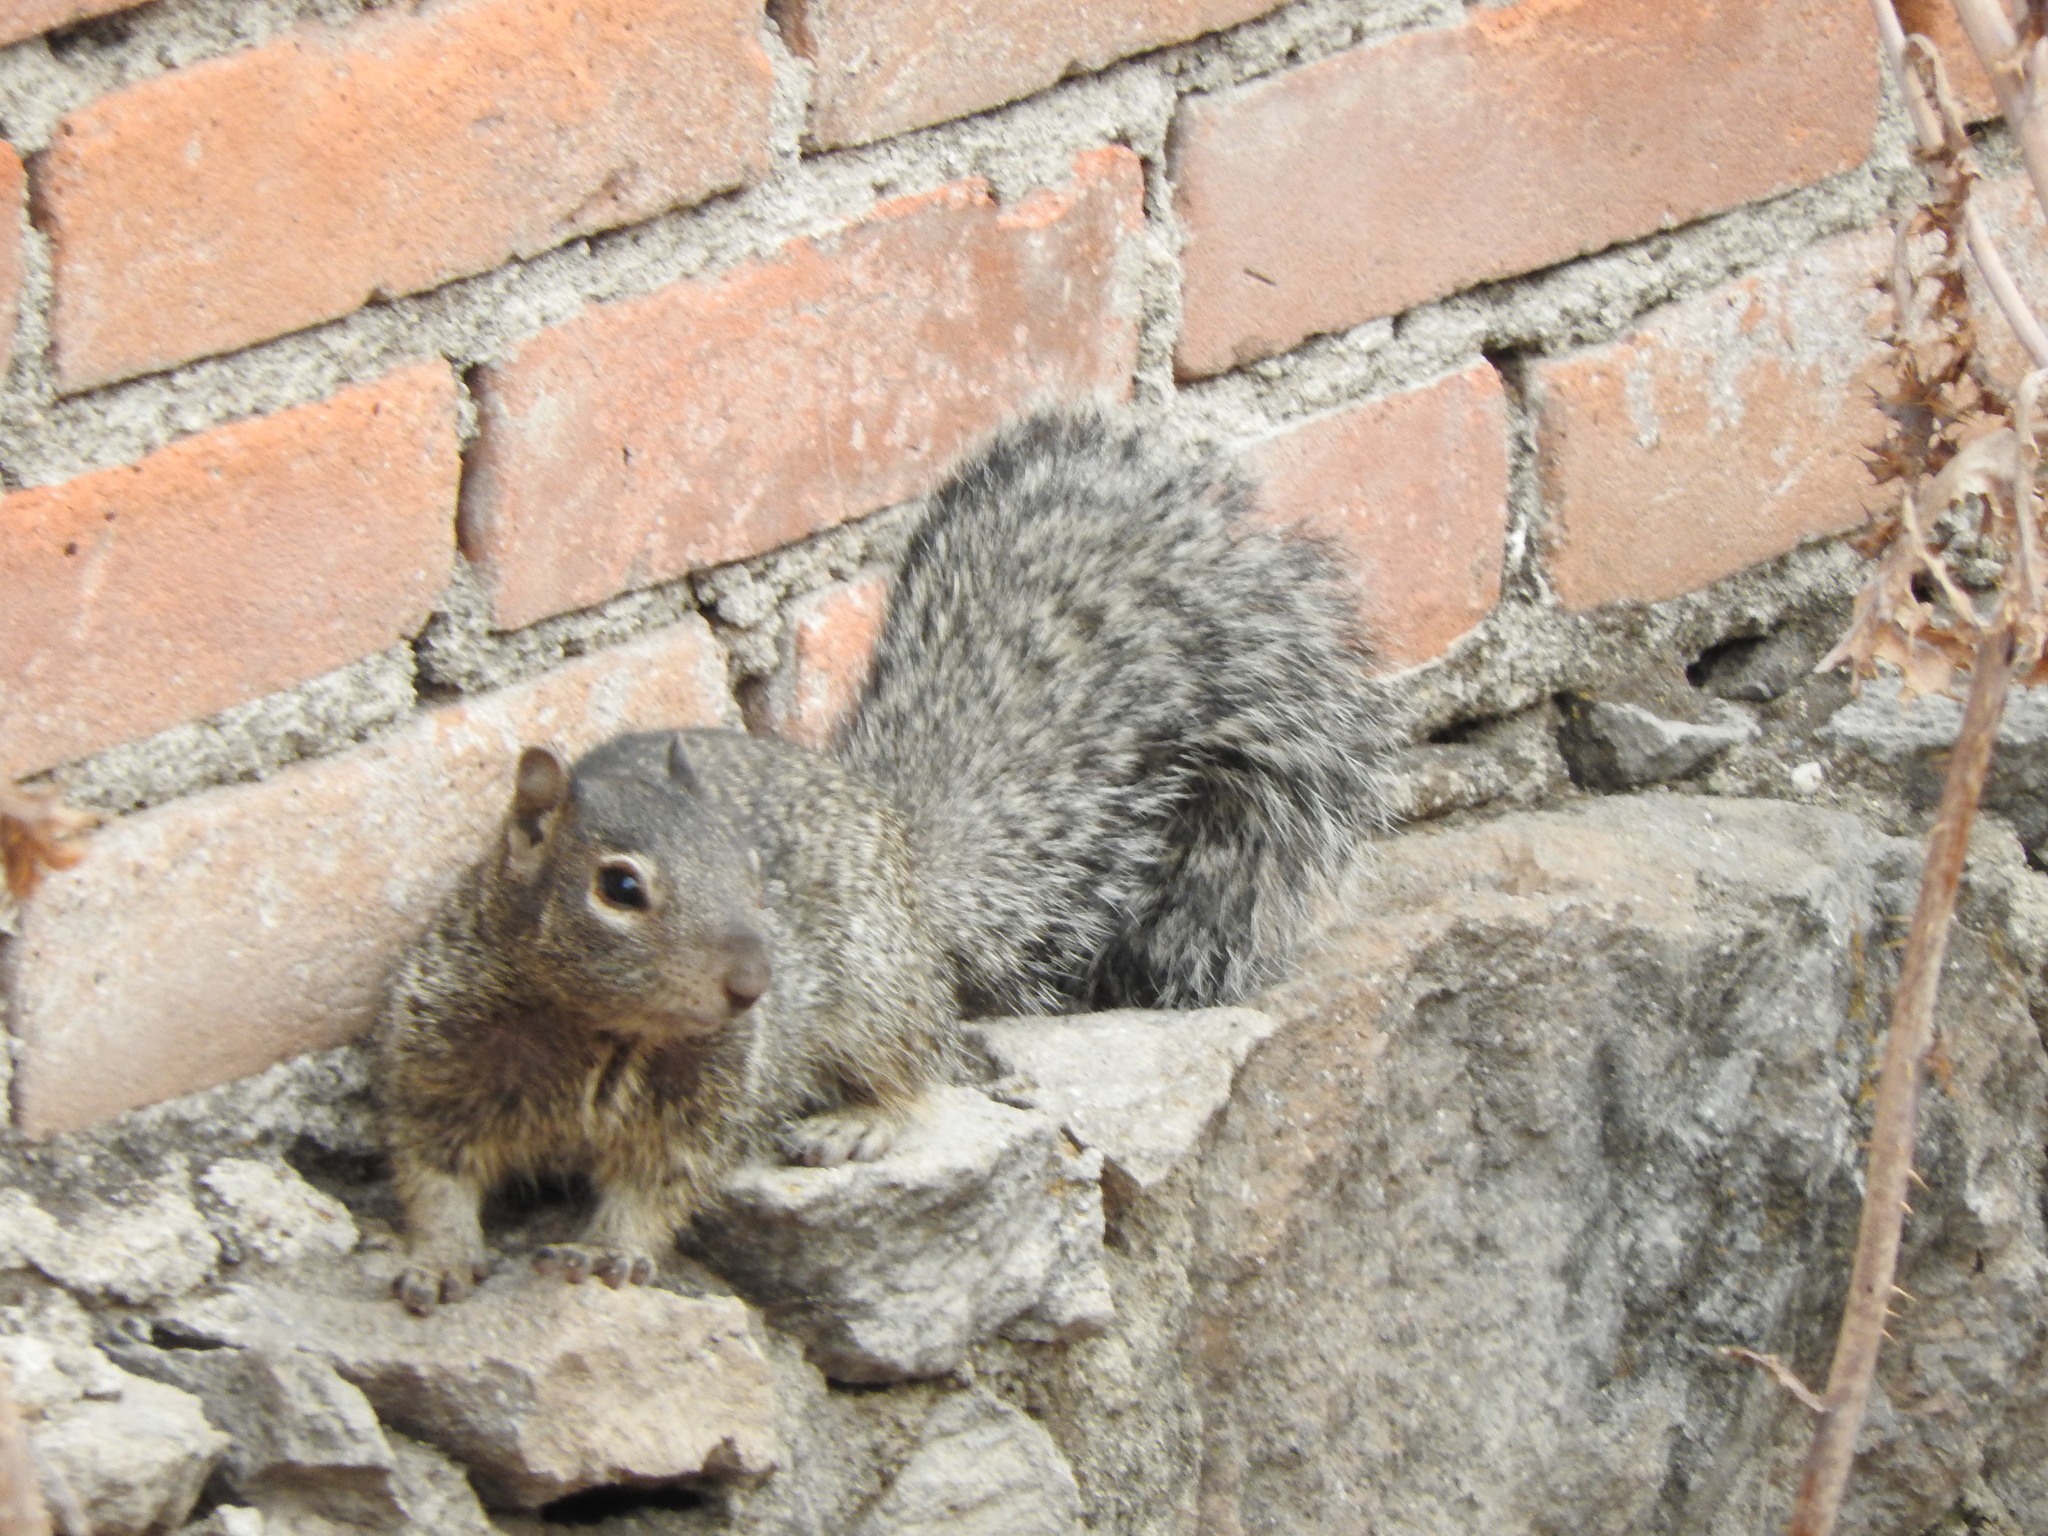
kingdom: Animalia
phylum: Chordata
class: Mammalia
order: Rodentia
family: Sciuridae
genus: Otospermophilus
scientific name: Otospermophilus variegatus
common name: Rock squirrel
